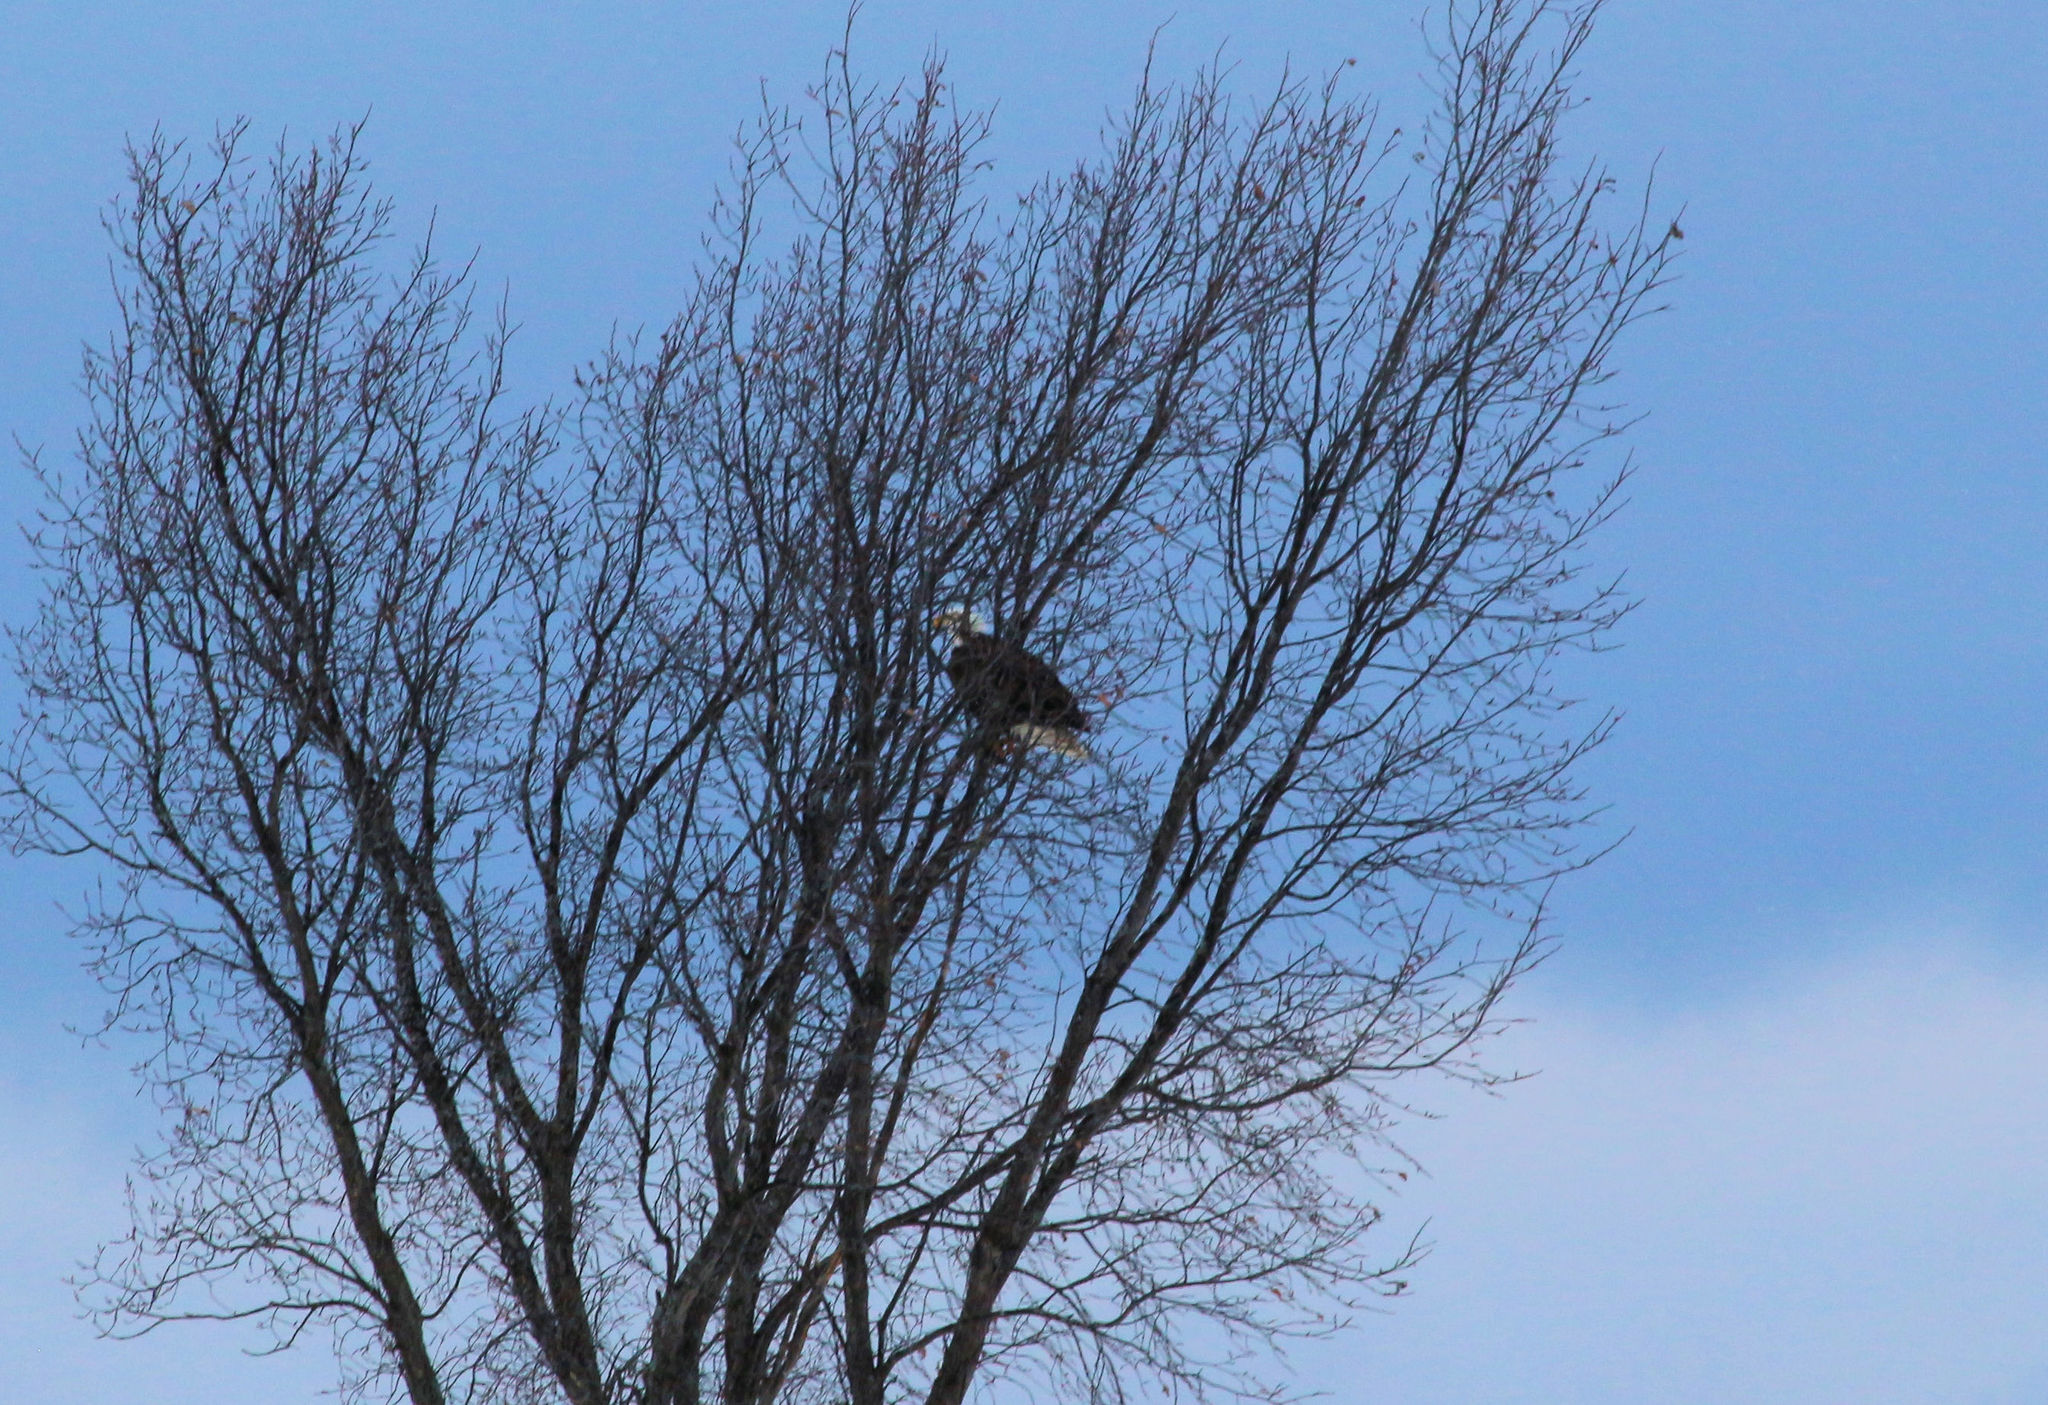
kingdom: Animalia
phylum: Chordata
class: Aves
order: Accipitriformes
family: Accipitridae
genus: Haliaeetus
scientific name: Haliaeetus leucocephalus
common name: Bald eagle
